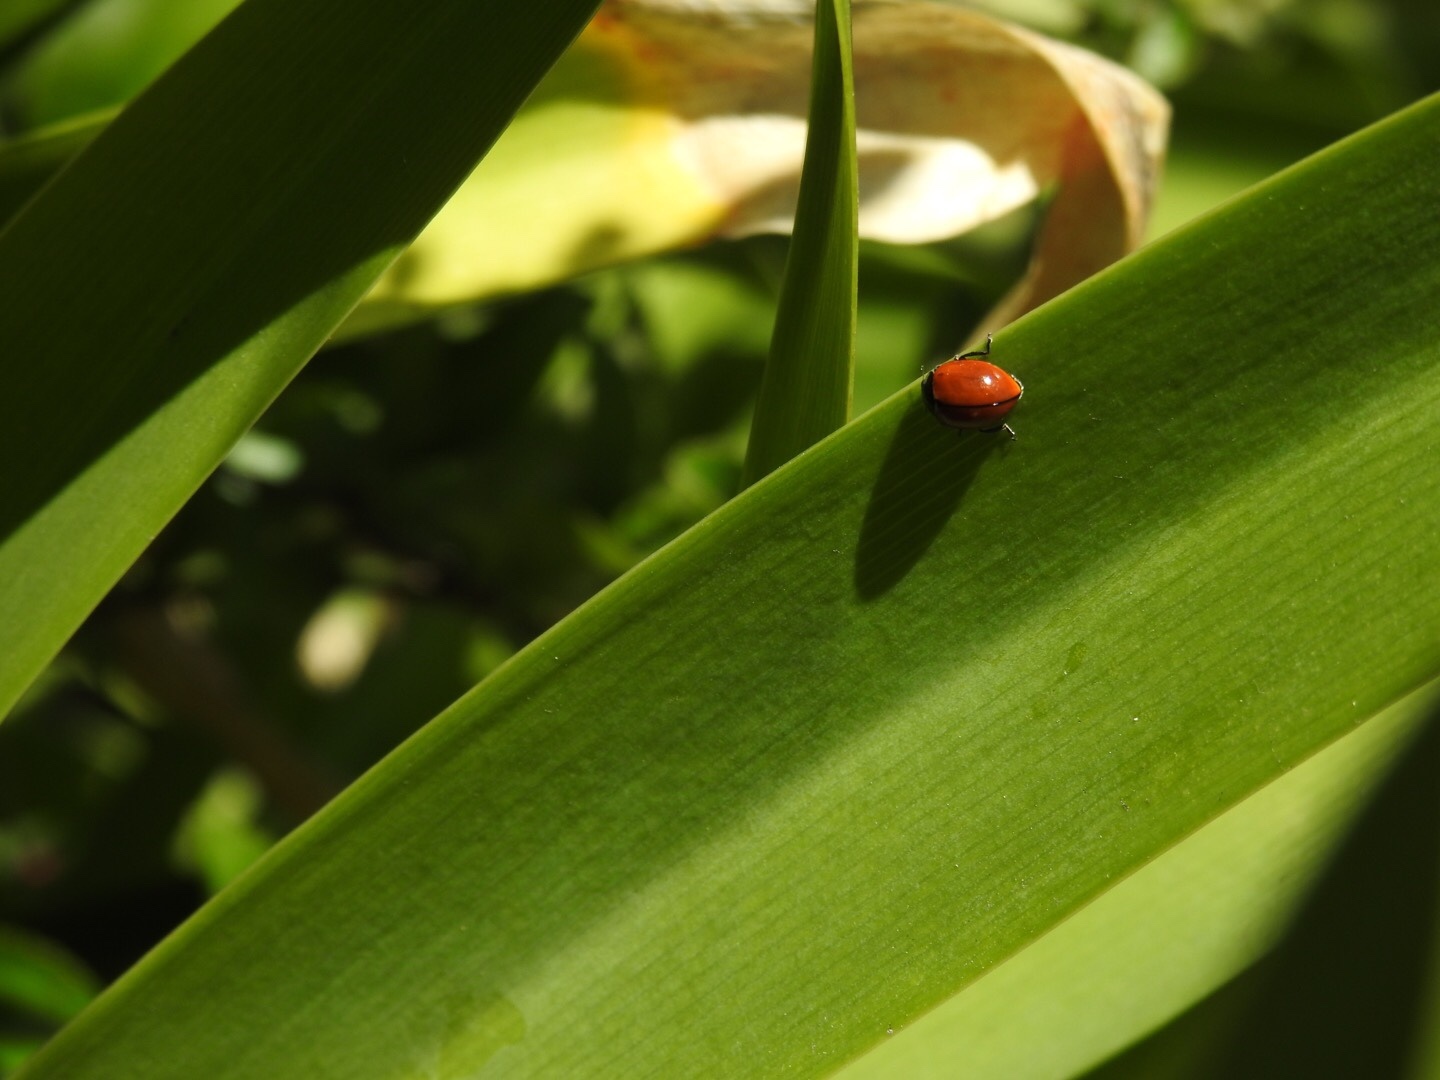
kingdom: Animalia
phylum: Arthropoda
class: Insecta
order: Coleoptera
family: Coccinellidae
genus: Coccinella
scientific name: Coccinella californica
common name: Lady beetle
